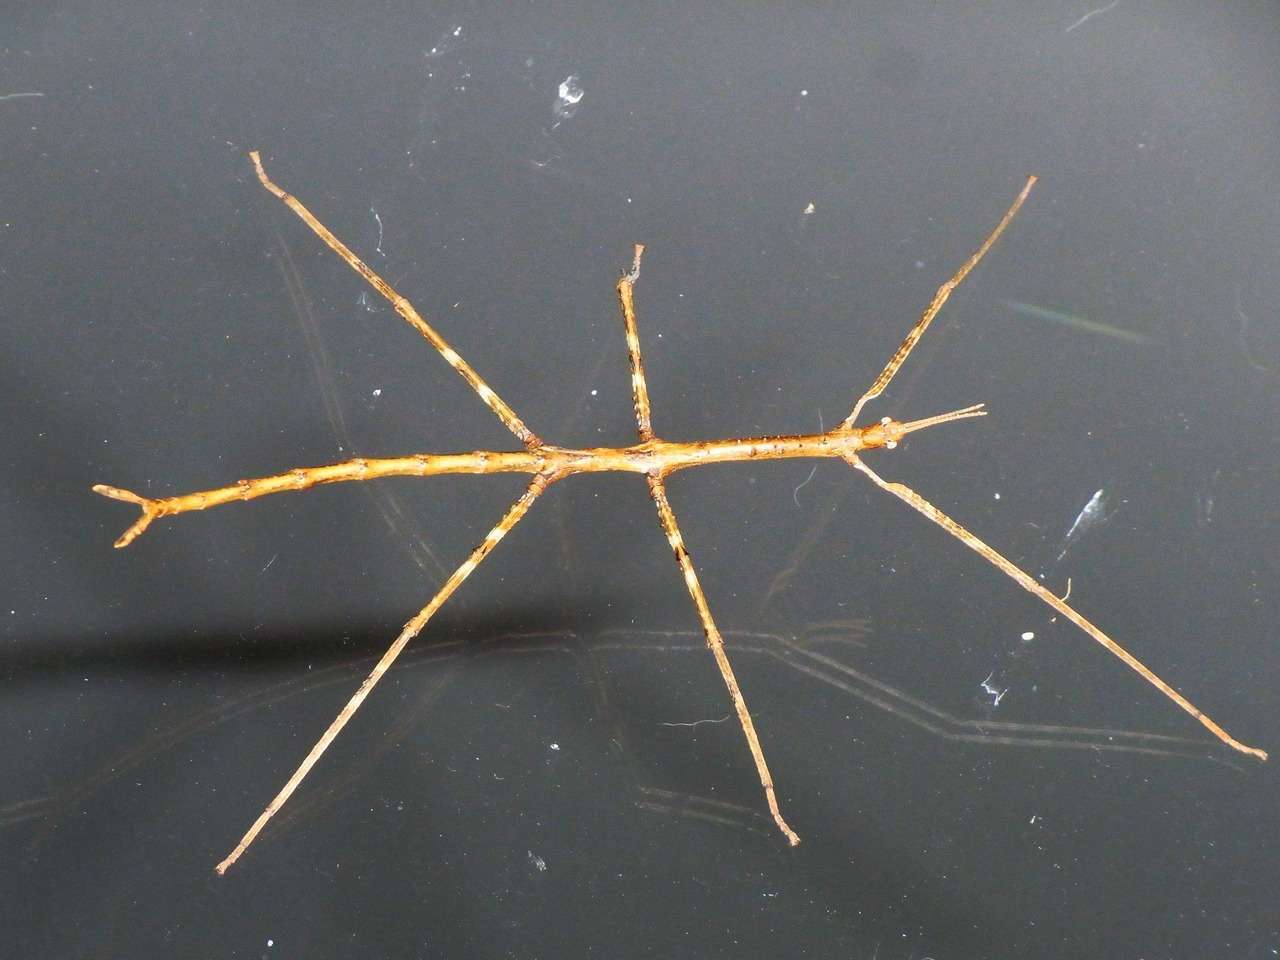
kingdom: Animalia
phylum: Arthropoda
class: Insecta
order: Phasmida
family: Phasmatidae
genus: Ctenomorpha
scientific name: Ctenomorpha marginipennis
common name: Margined-winged stick-insect
